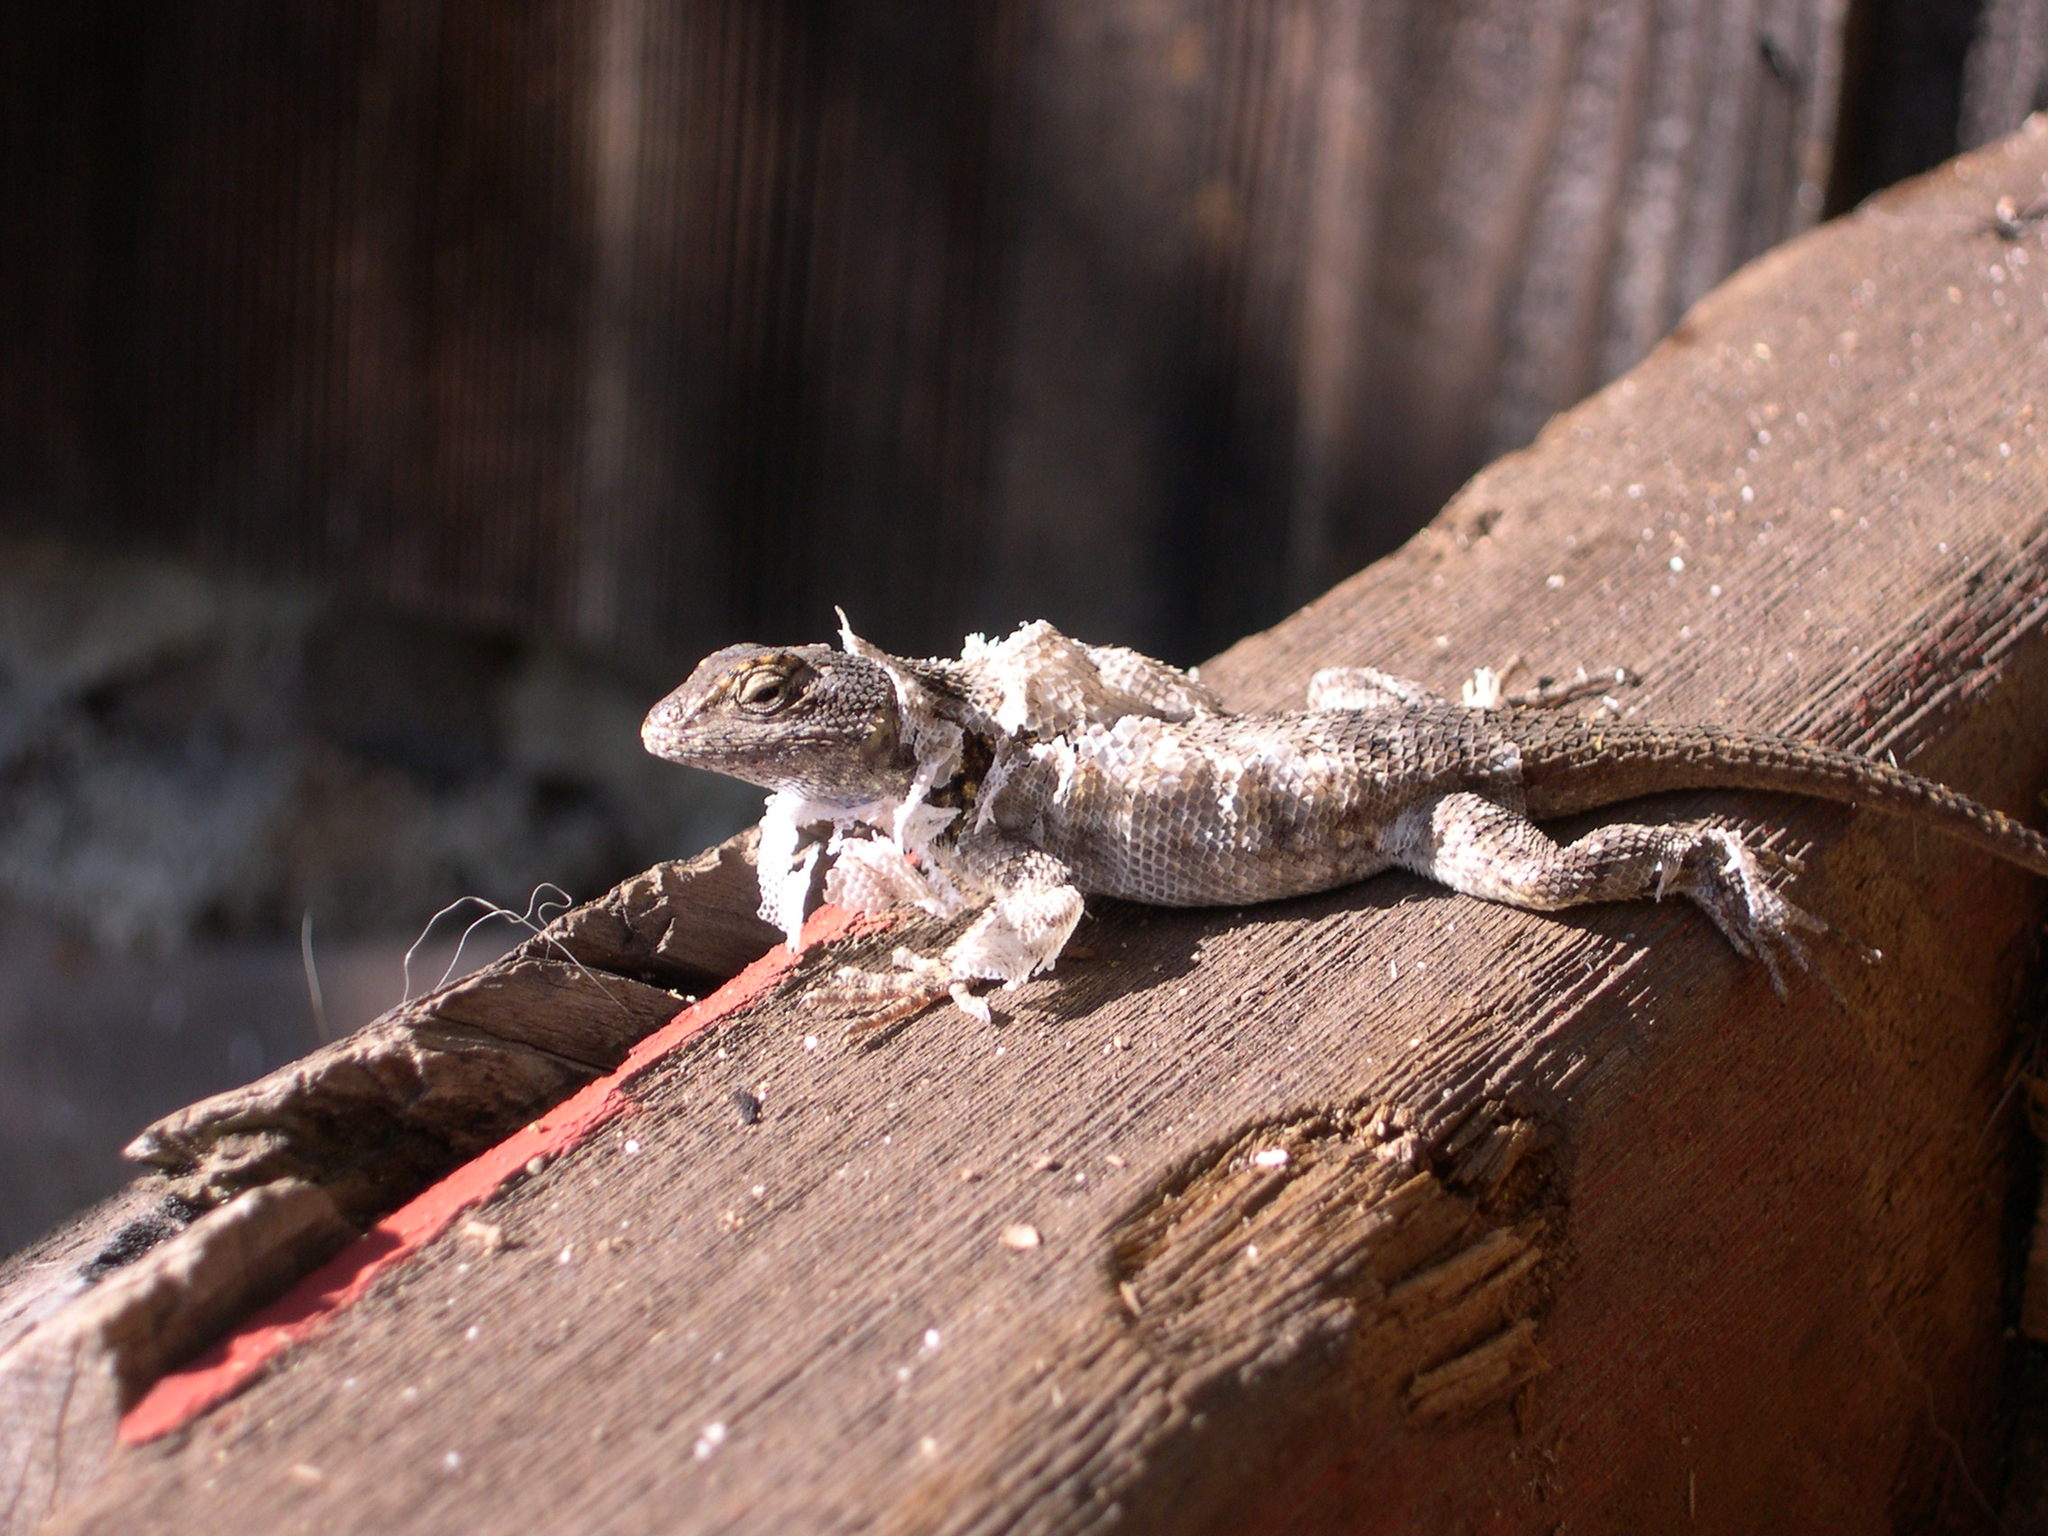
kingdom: Animalia
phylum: Chordata
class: Squamata
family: Phrynosomatidae
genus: Sceloporus
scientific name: Sceloporus occidentalis
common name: Western fence lizard
